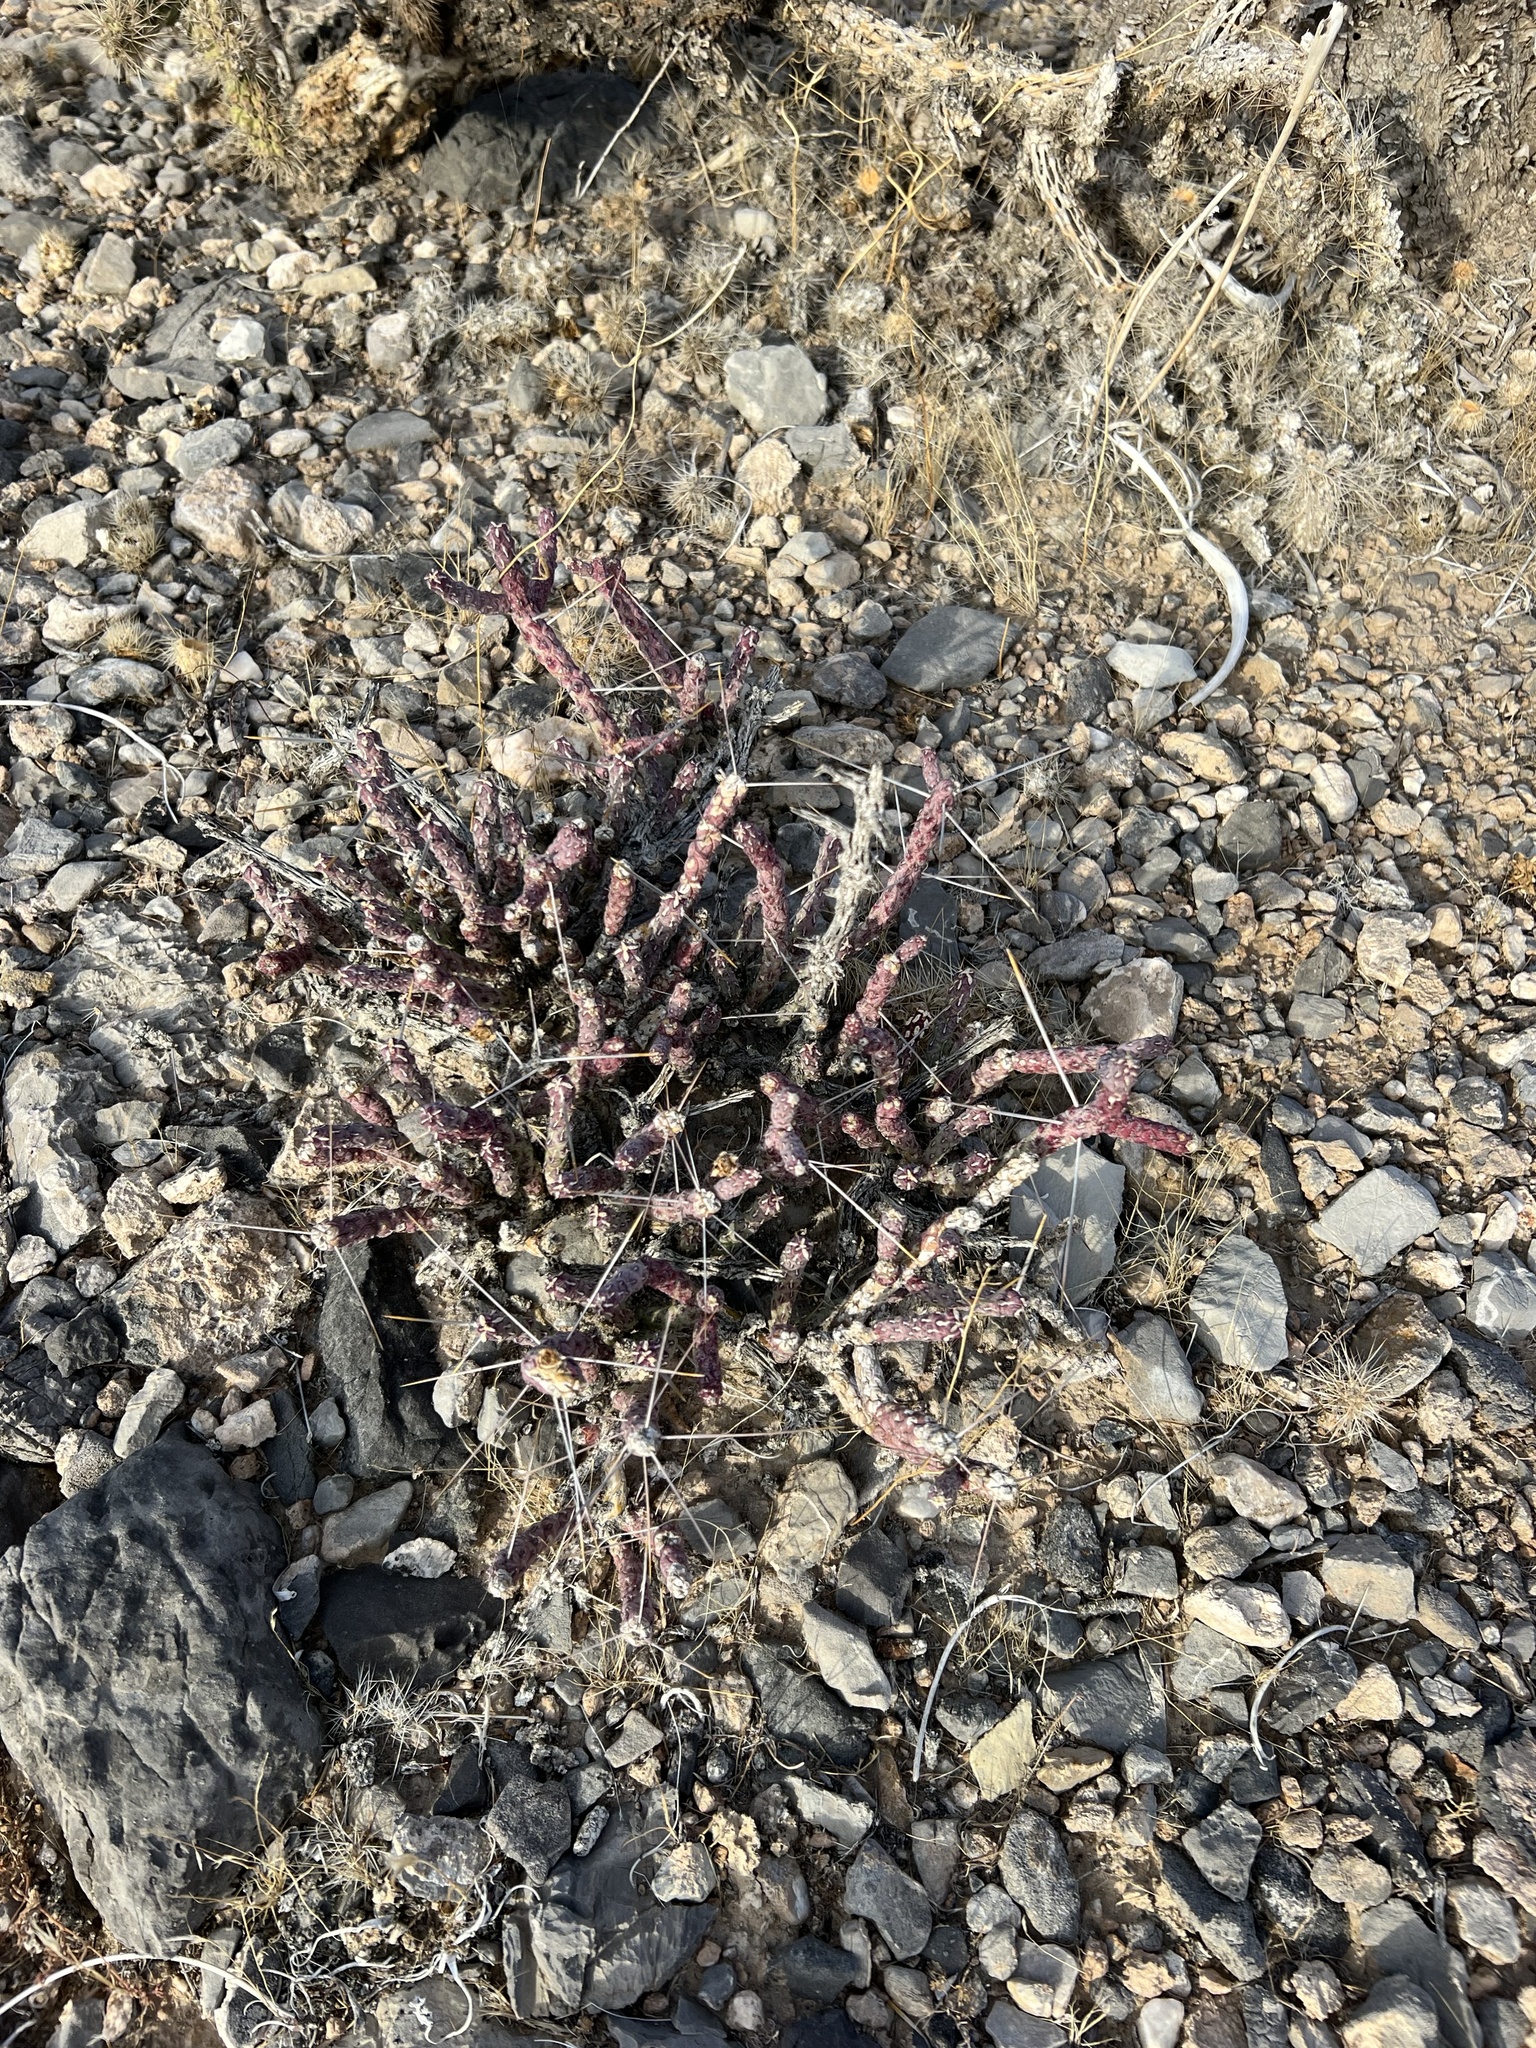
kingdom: Plantae
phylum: Tracheophyta
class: Magnoliopsida
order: Caryophyllales
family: Cactaceae
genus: Cylindropuntia
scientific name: Cylindropuntia ramosissima
